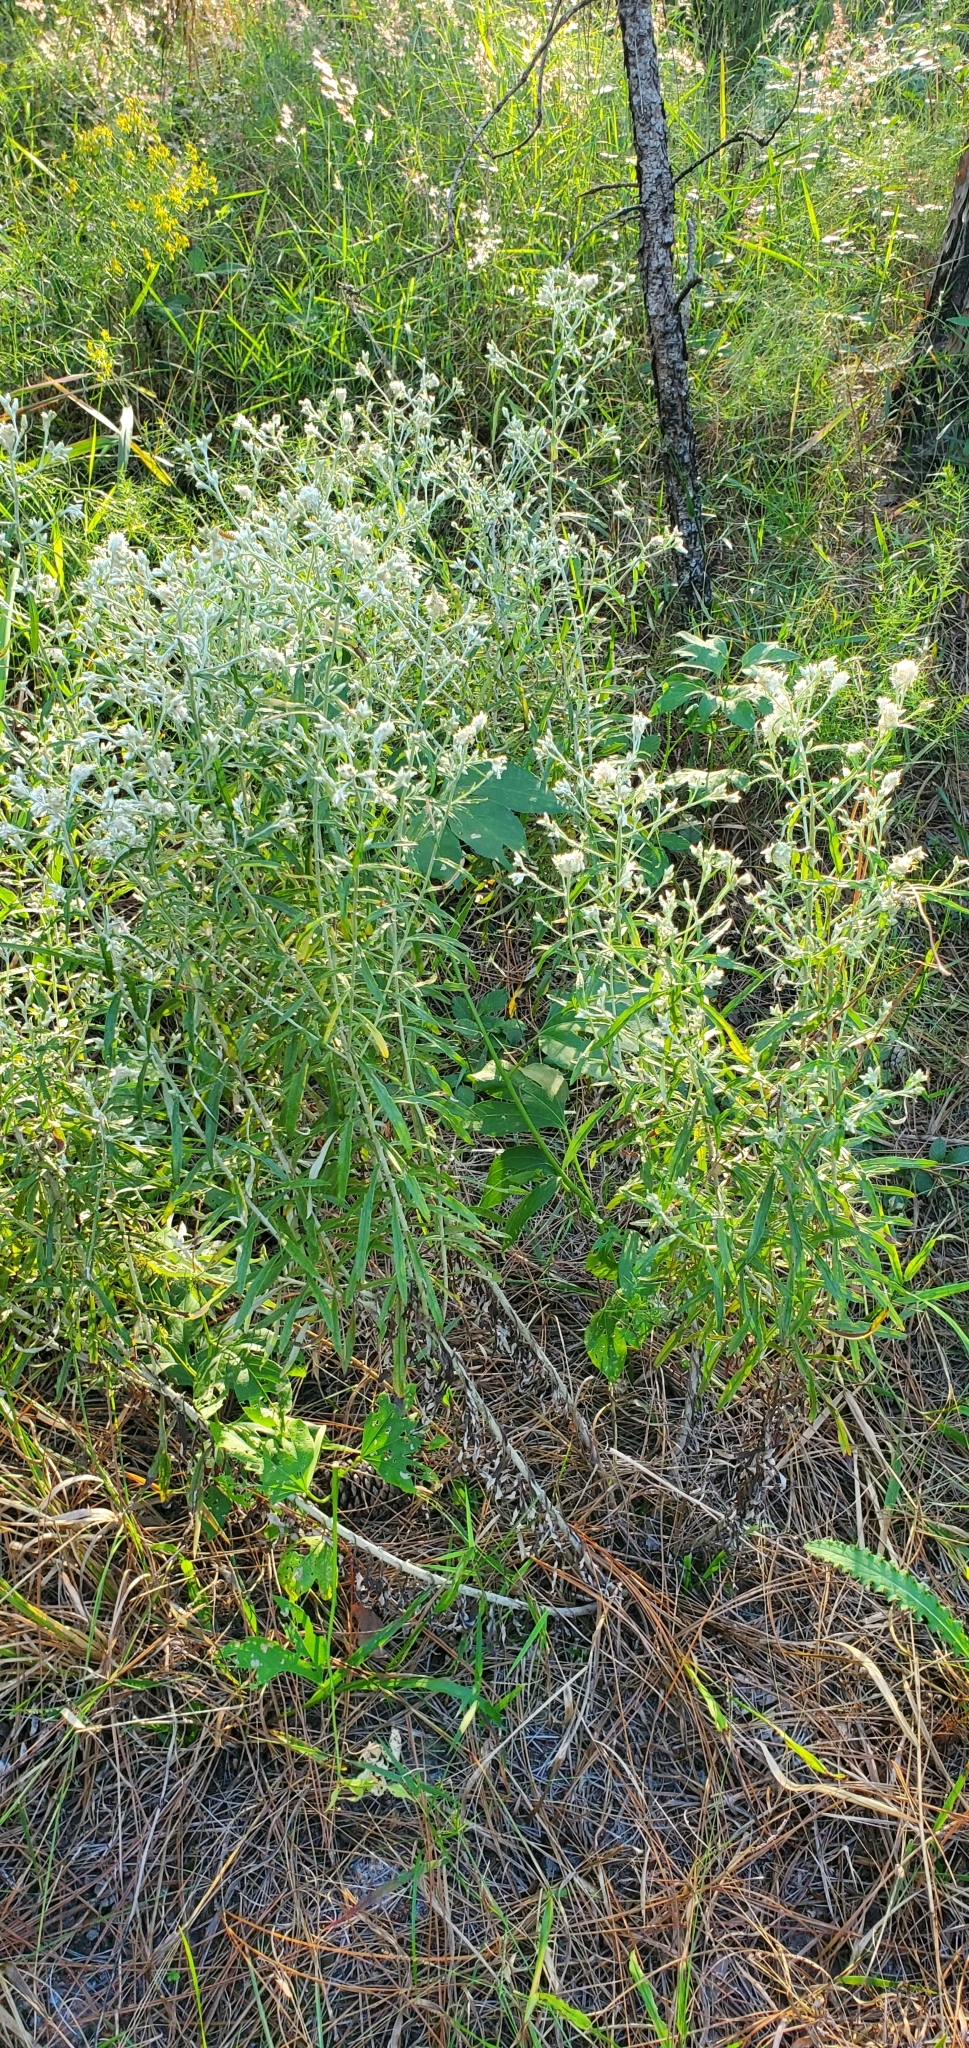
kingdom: Plantae
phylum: Tracheophyta
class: Magnoliopsida
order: Asterales
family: Asteraceae
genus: Eupatorium
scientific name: Eupatorium mohrii
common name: Mohr's thoroughwort
